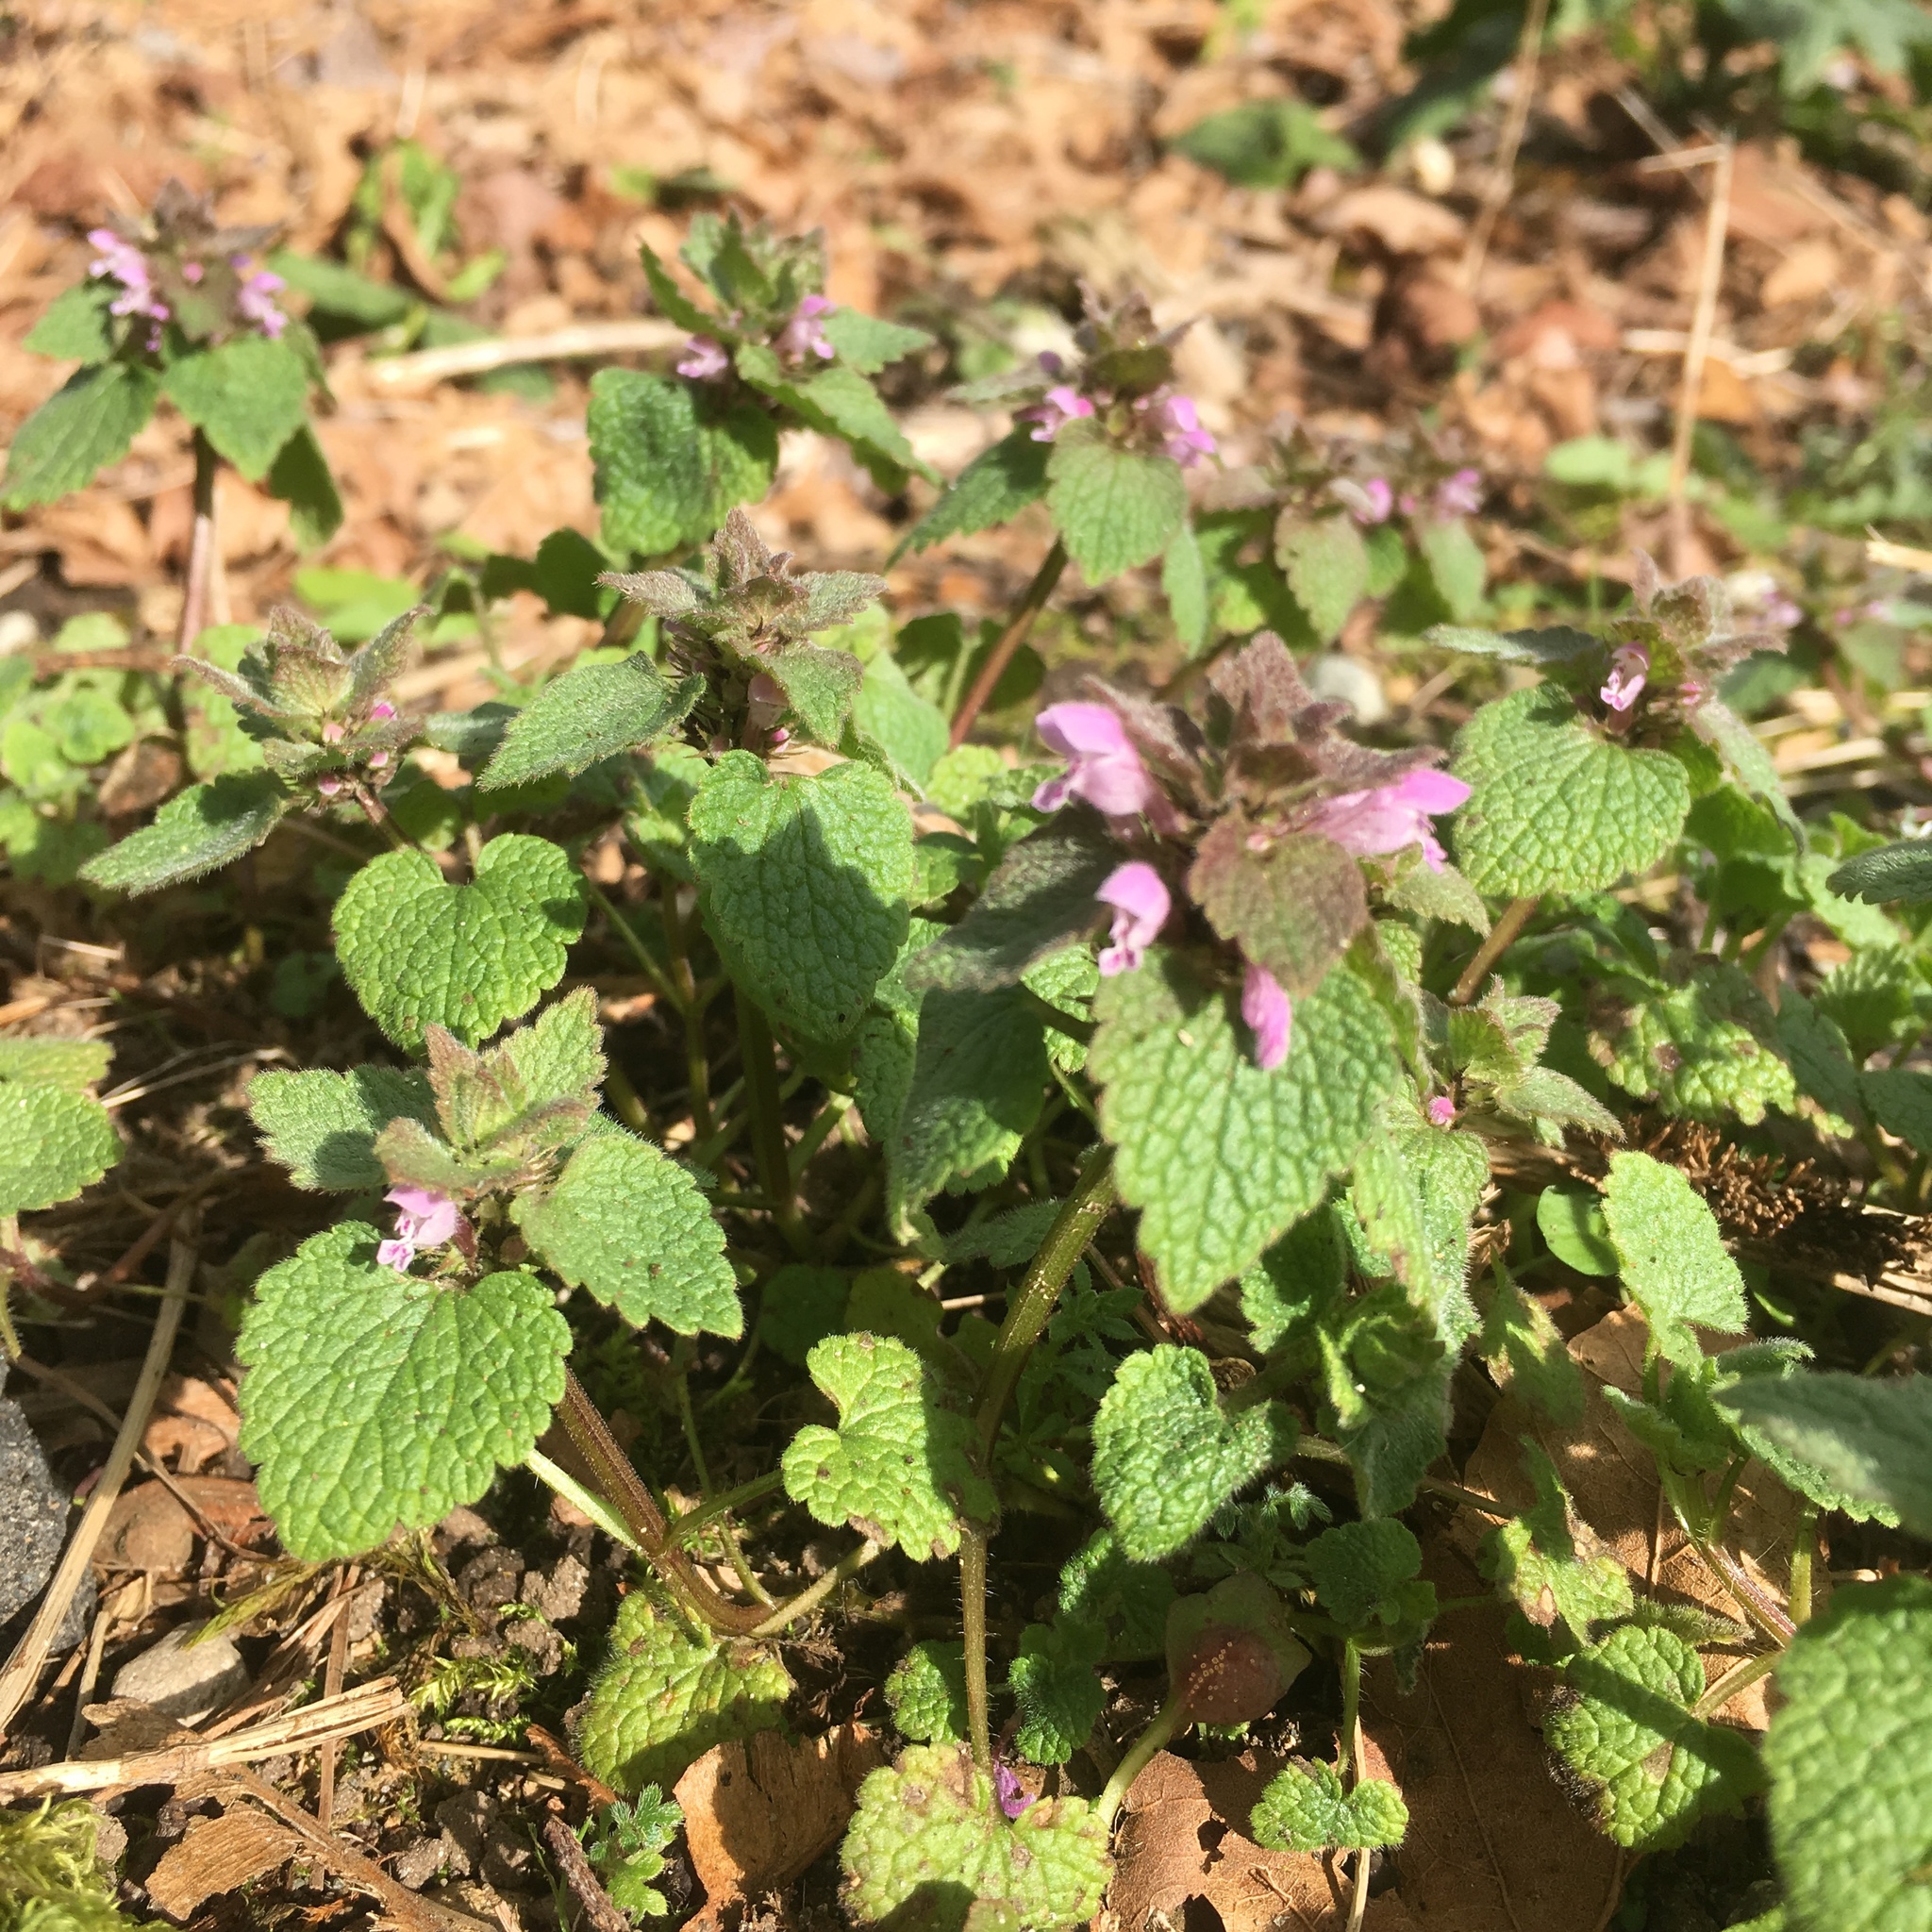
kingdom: Plantae
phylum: Tracheophyta
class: Magnoliopsida
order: Lamiales
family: Lamiaceae
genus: Lamium
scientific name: Lamium purpureum
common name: Red dead-nettle
